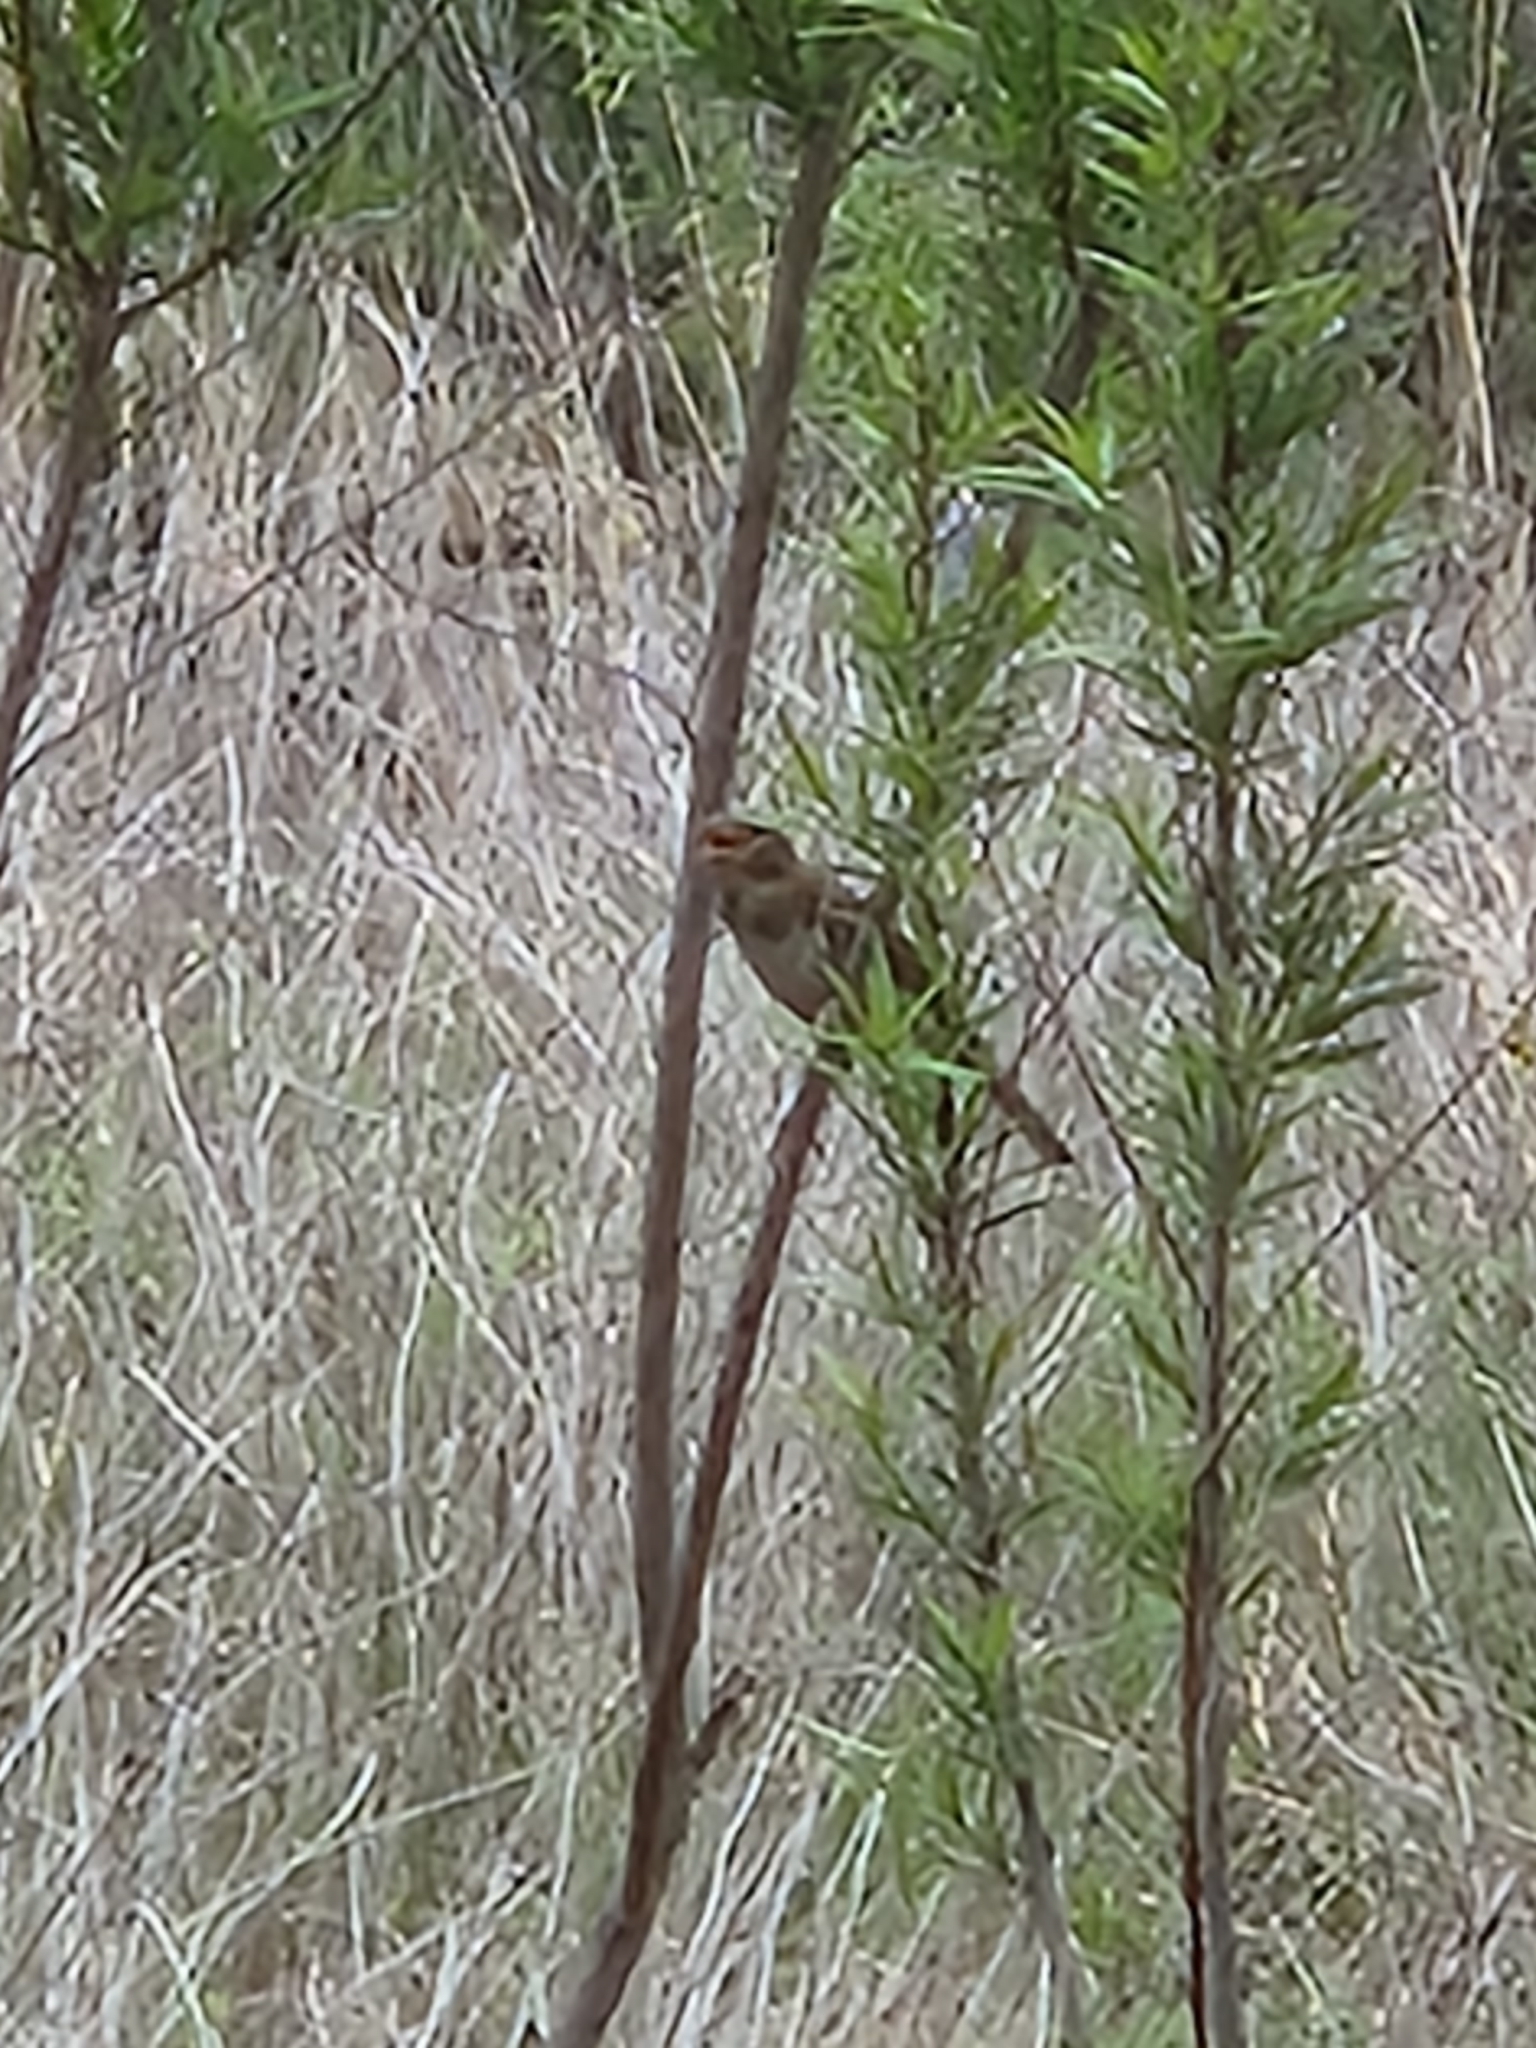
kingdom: Animalia
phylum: Chordata
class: Aves
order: Passeriformes
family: Passeridae
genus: Passer
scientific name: Passer domesticus
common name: House sparrow
